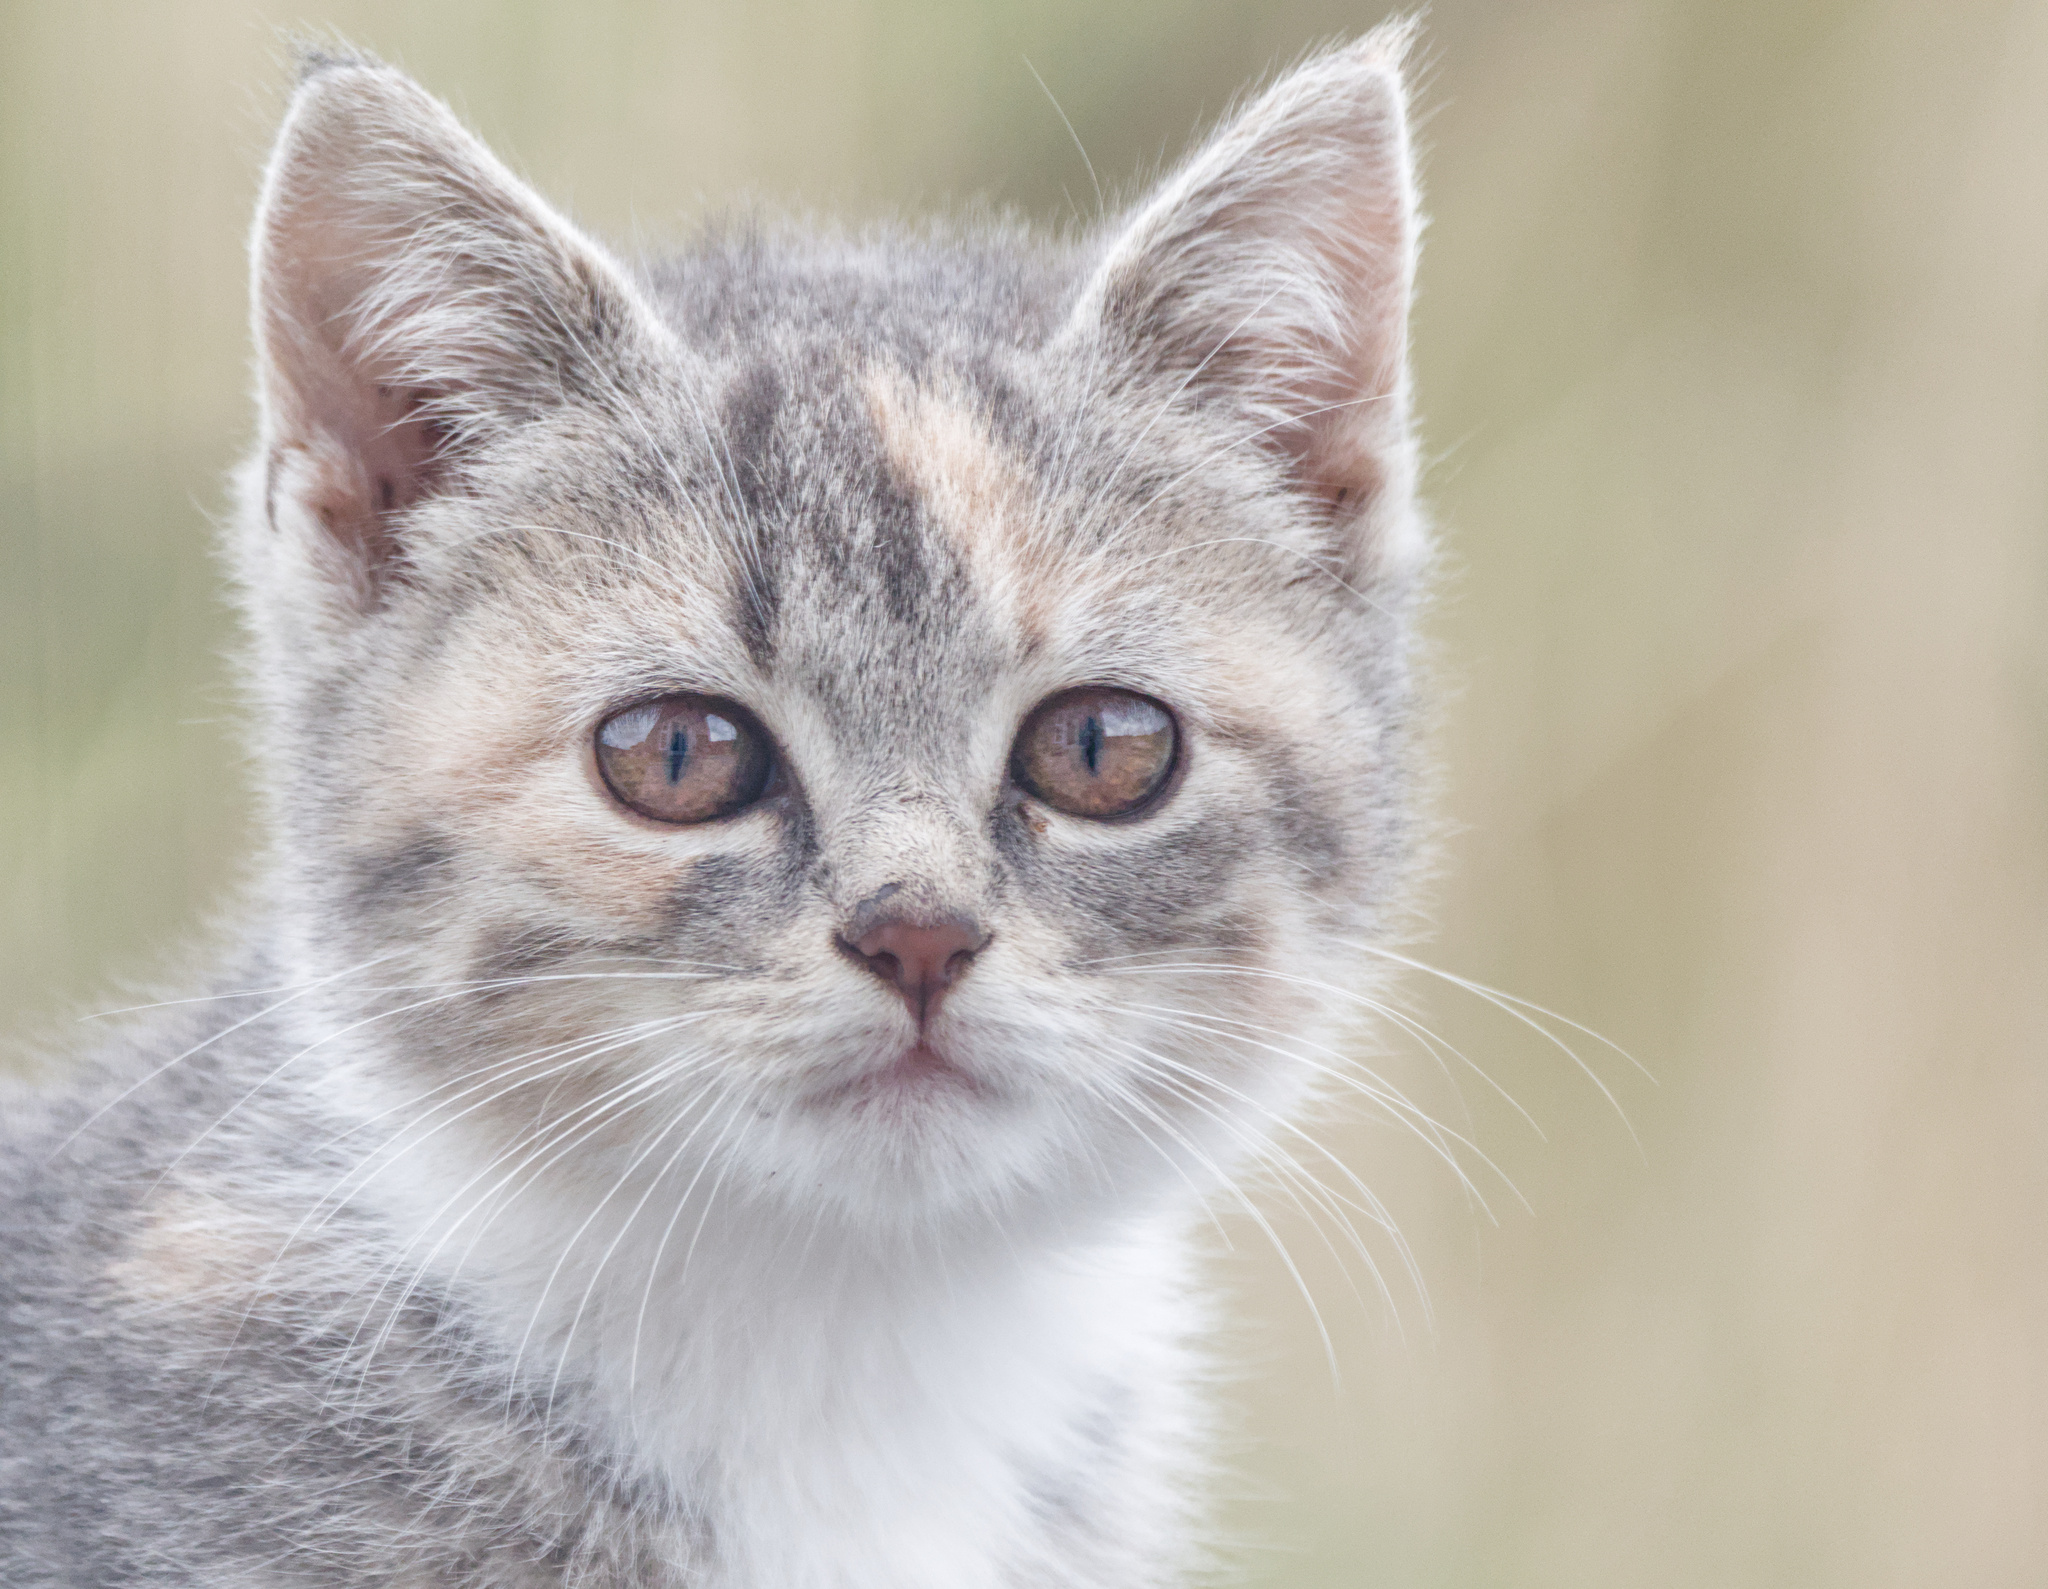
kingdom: Animalia
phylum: Chordata
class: Mammalia
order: Carnivora
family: Felidae
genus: Felis
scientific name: Felis catus
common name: Domestic cat
